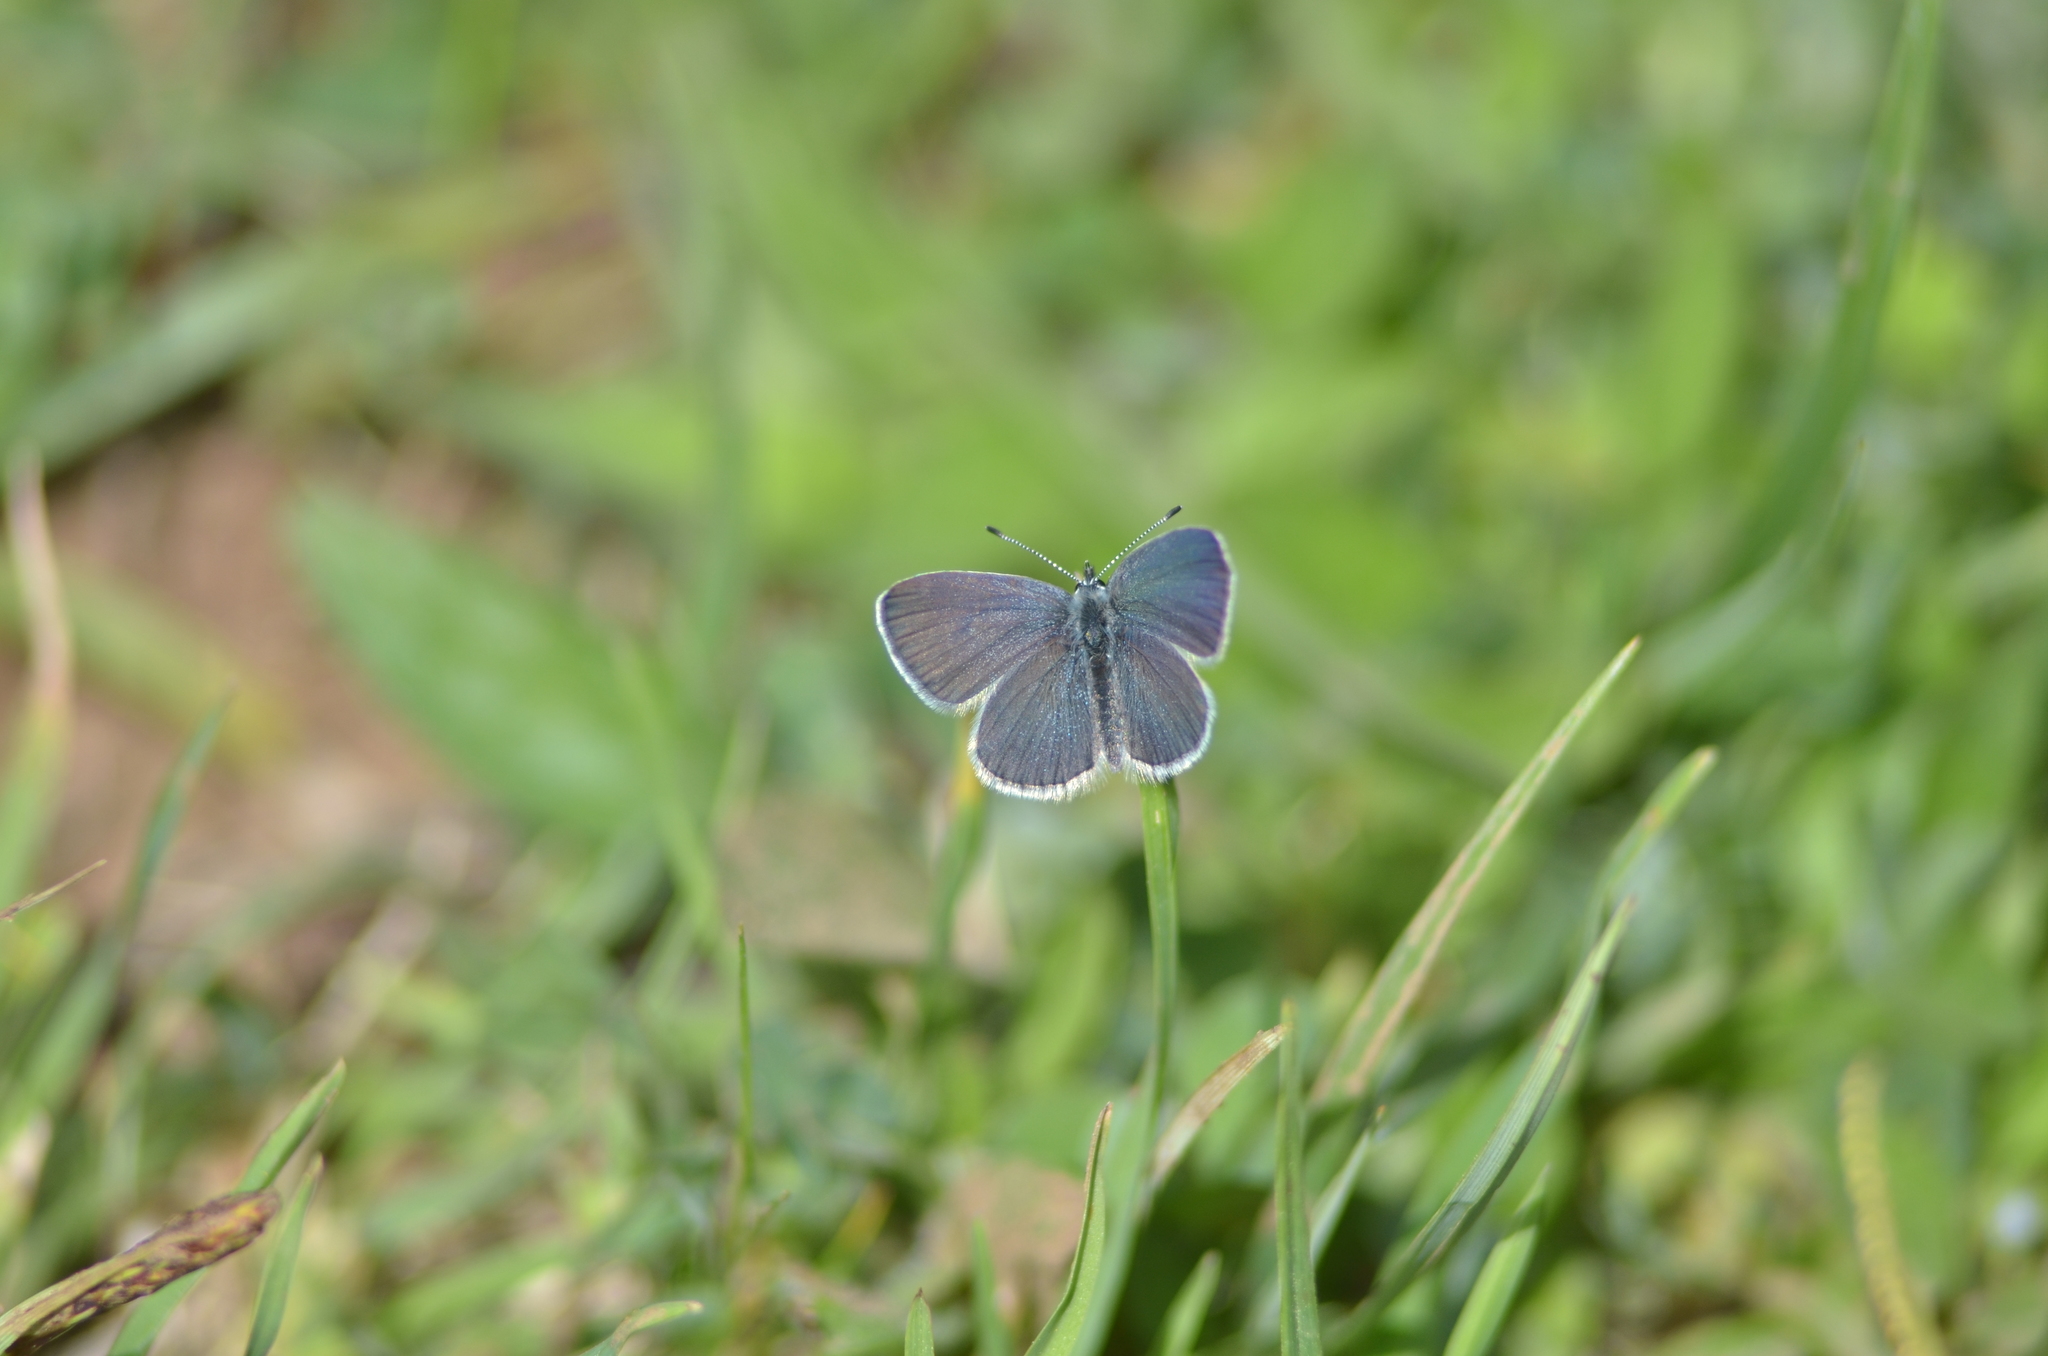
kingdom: Animalia
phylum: Arthropoda
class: Insecta
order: Lepidoptera
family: Lycaenidae
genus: Cupido
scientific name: Cupido minimus
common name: Small blue
